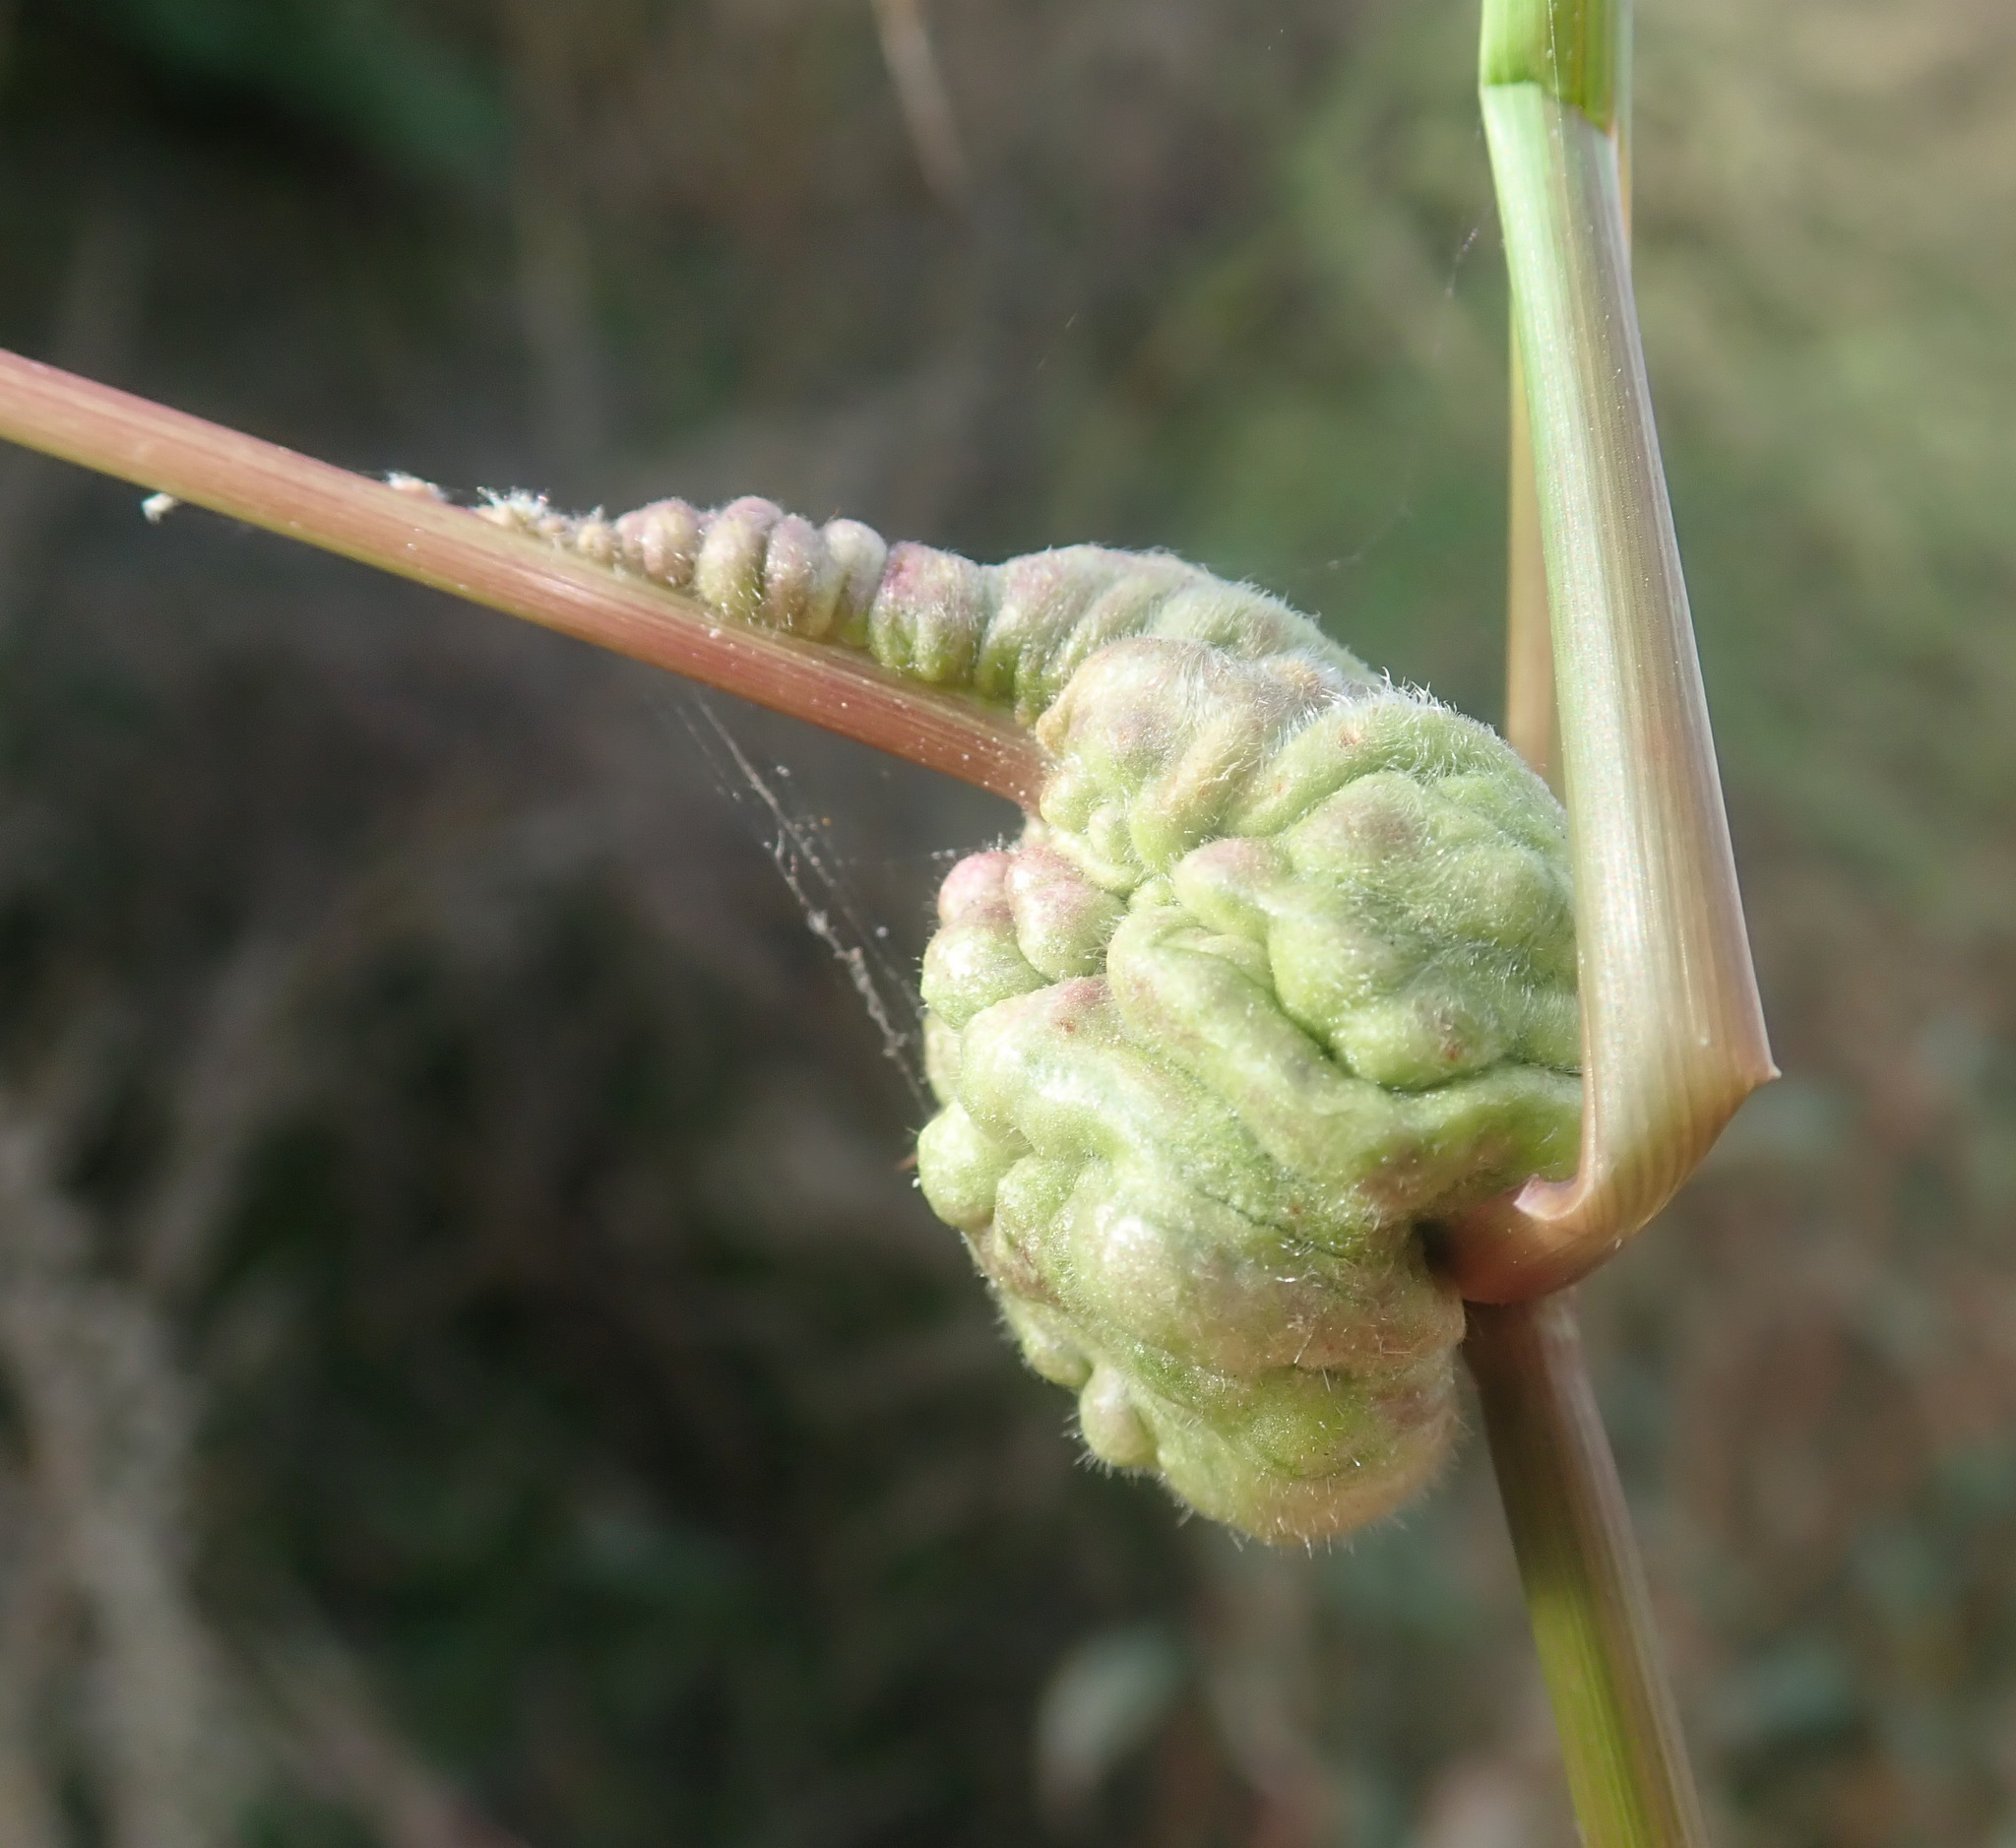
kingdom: Fungi
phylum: Basidiomycota
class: Ustilaginomycetes
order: Ustilaginales
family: Ustilaginaceae
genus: Ustilago
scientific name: Ustilago trichophora
